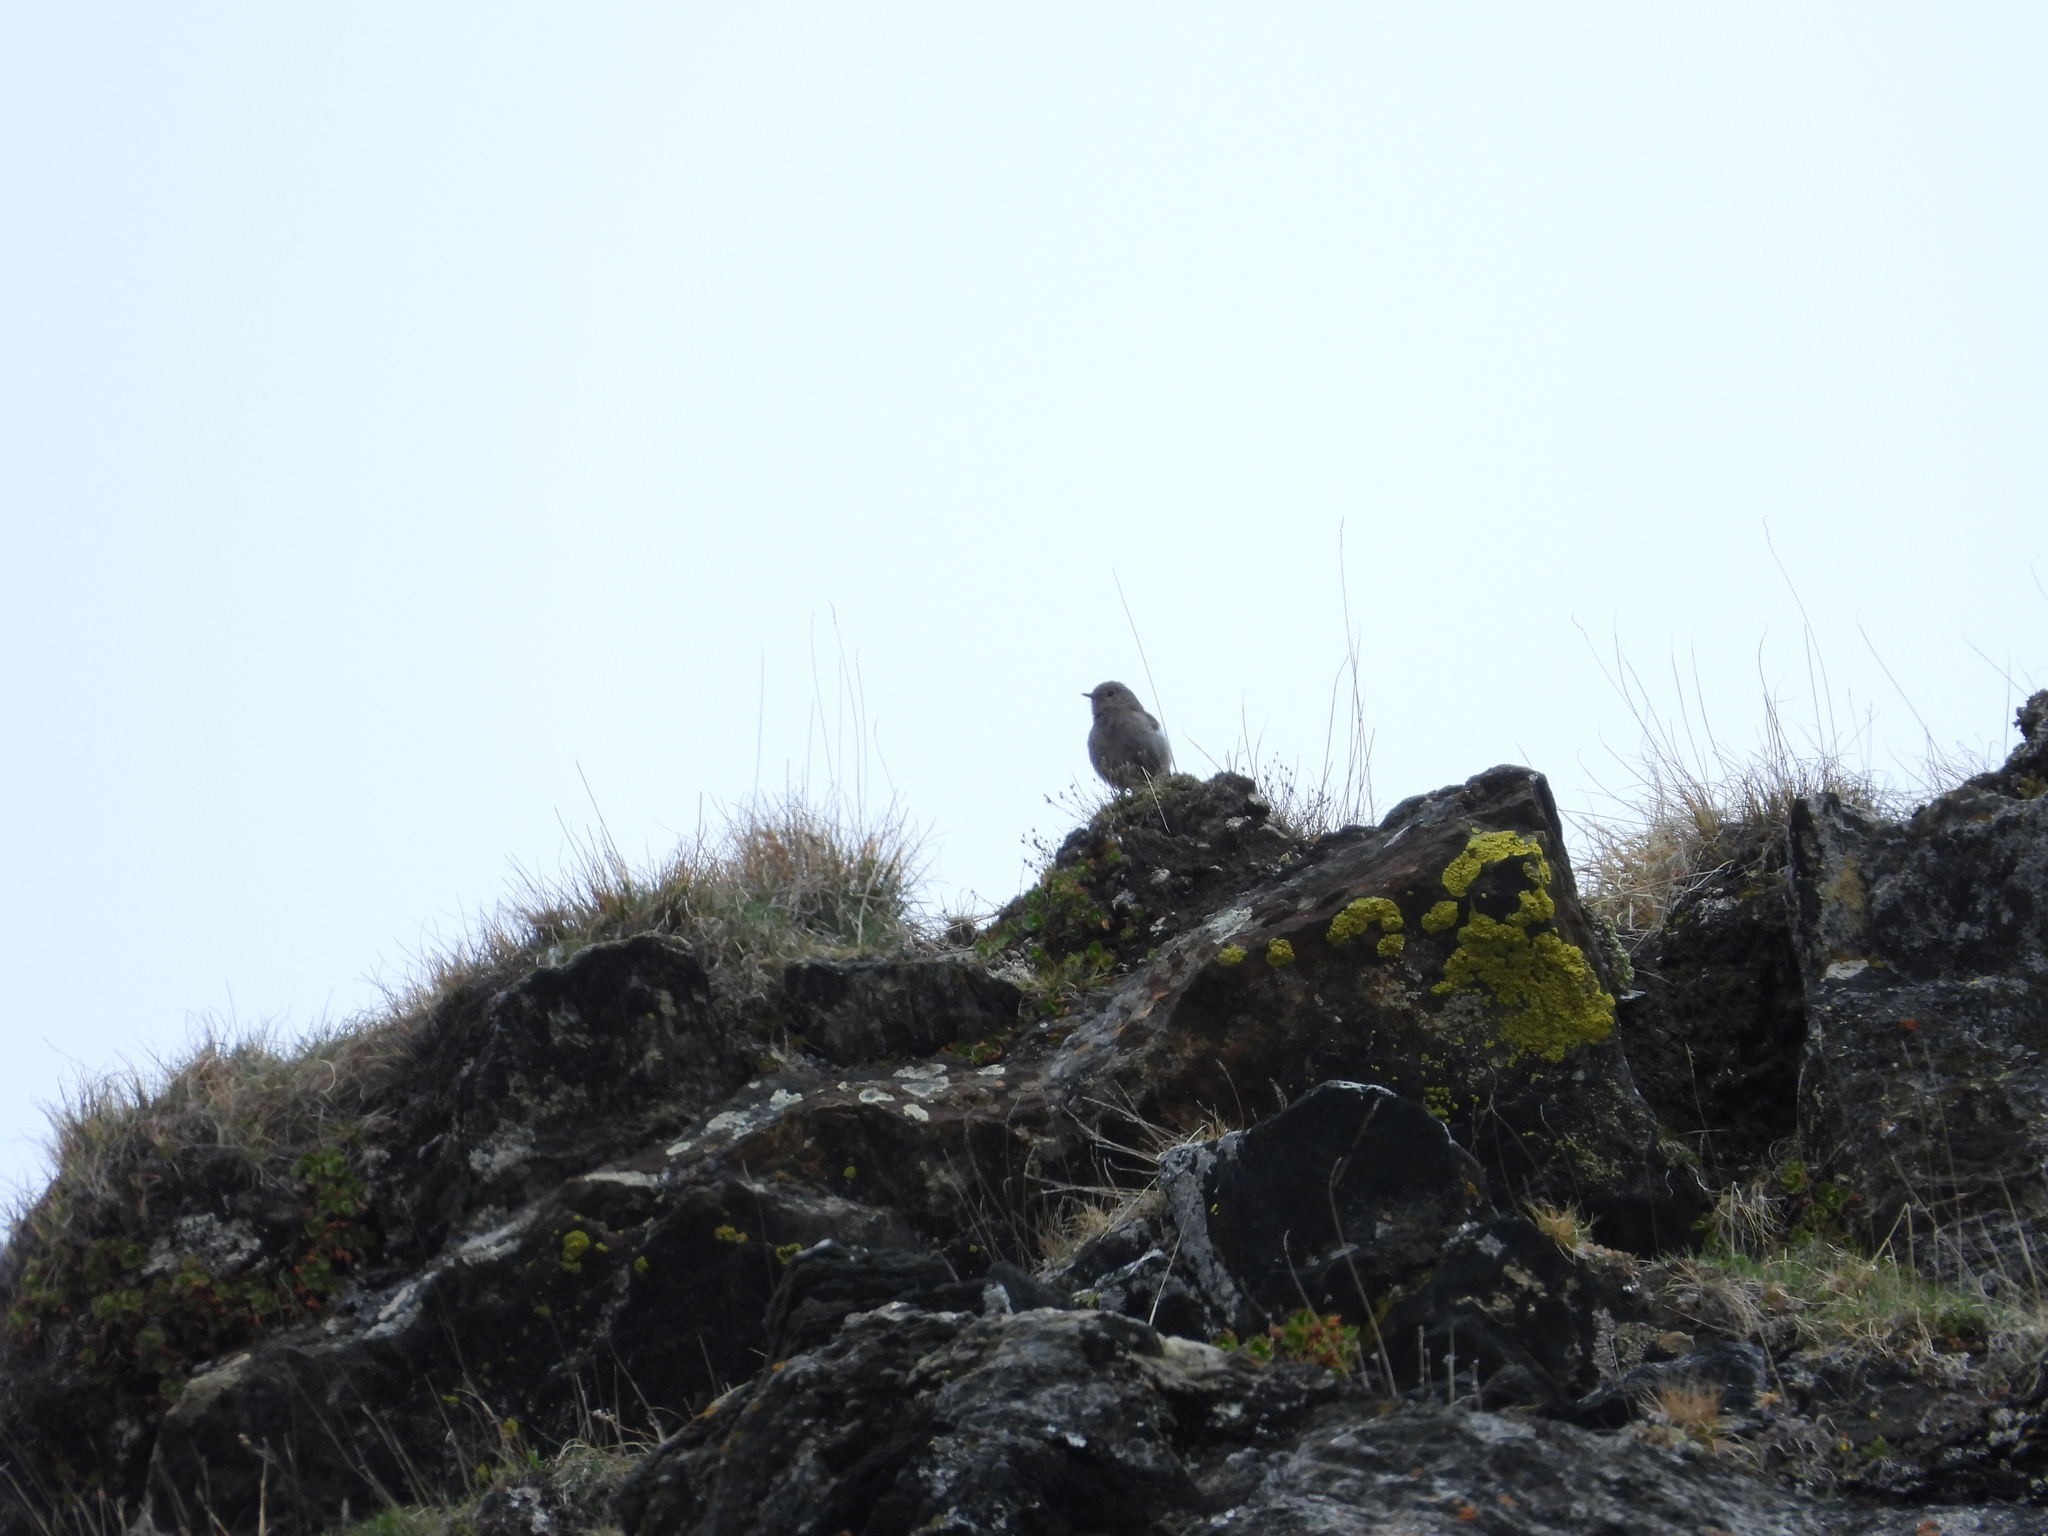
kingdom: Animalia
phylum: Chordata
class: Aves
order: Passeriformes
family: Muscicapidae
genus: Phoenicurus
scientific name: Phoenicurus ochruros
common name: Black redstart
